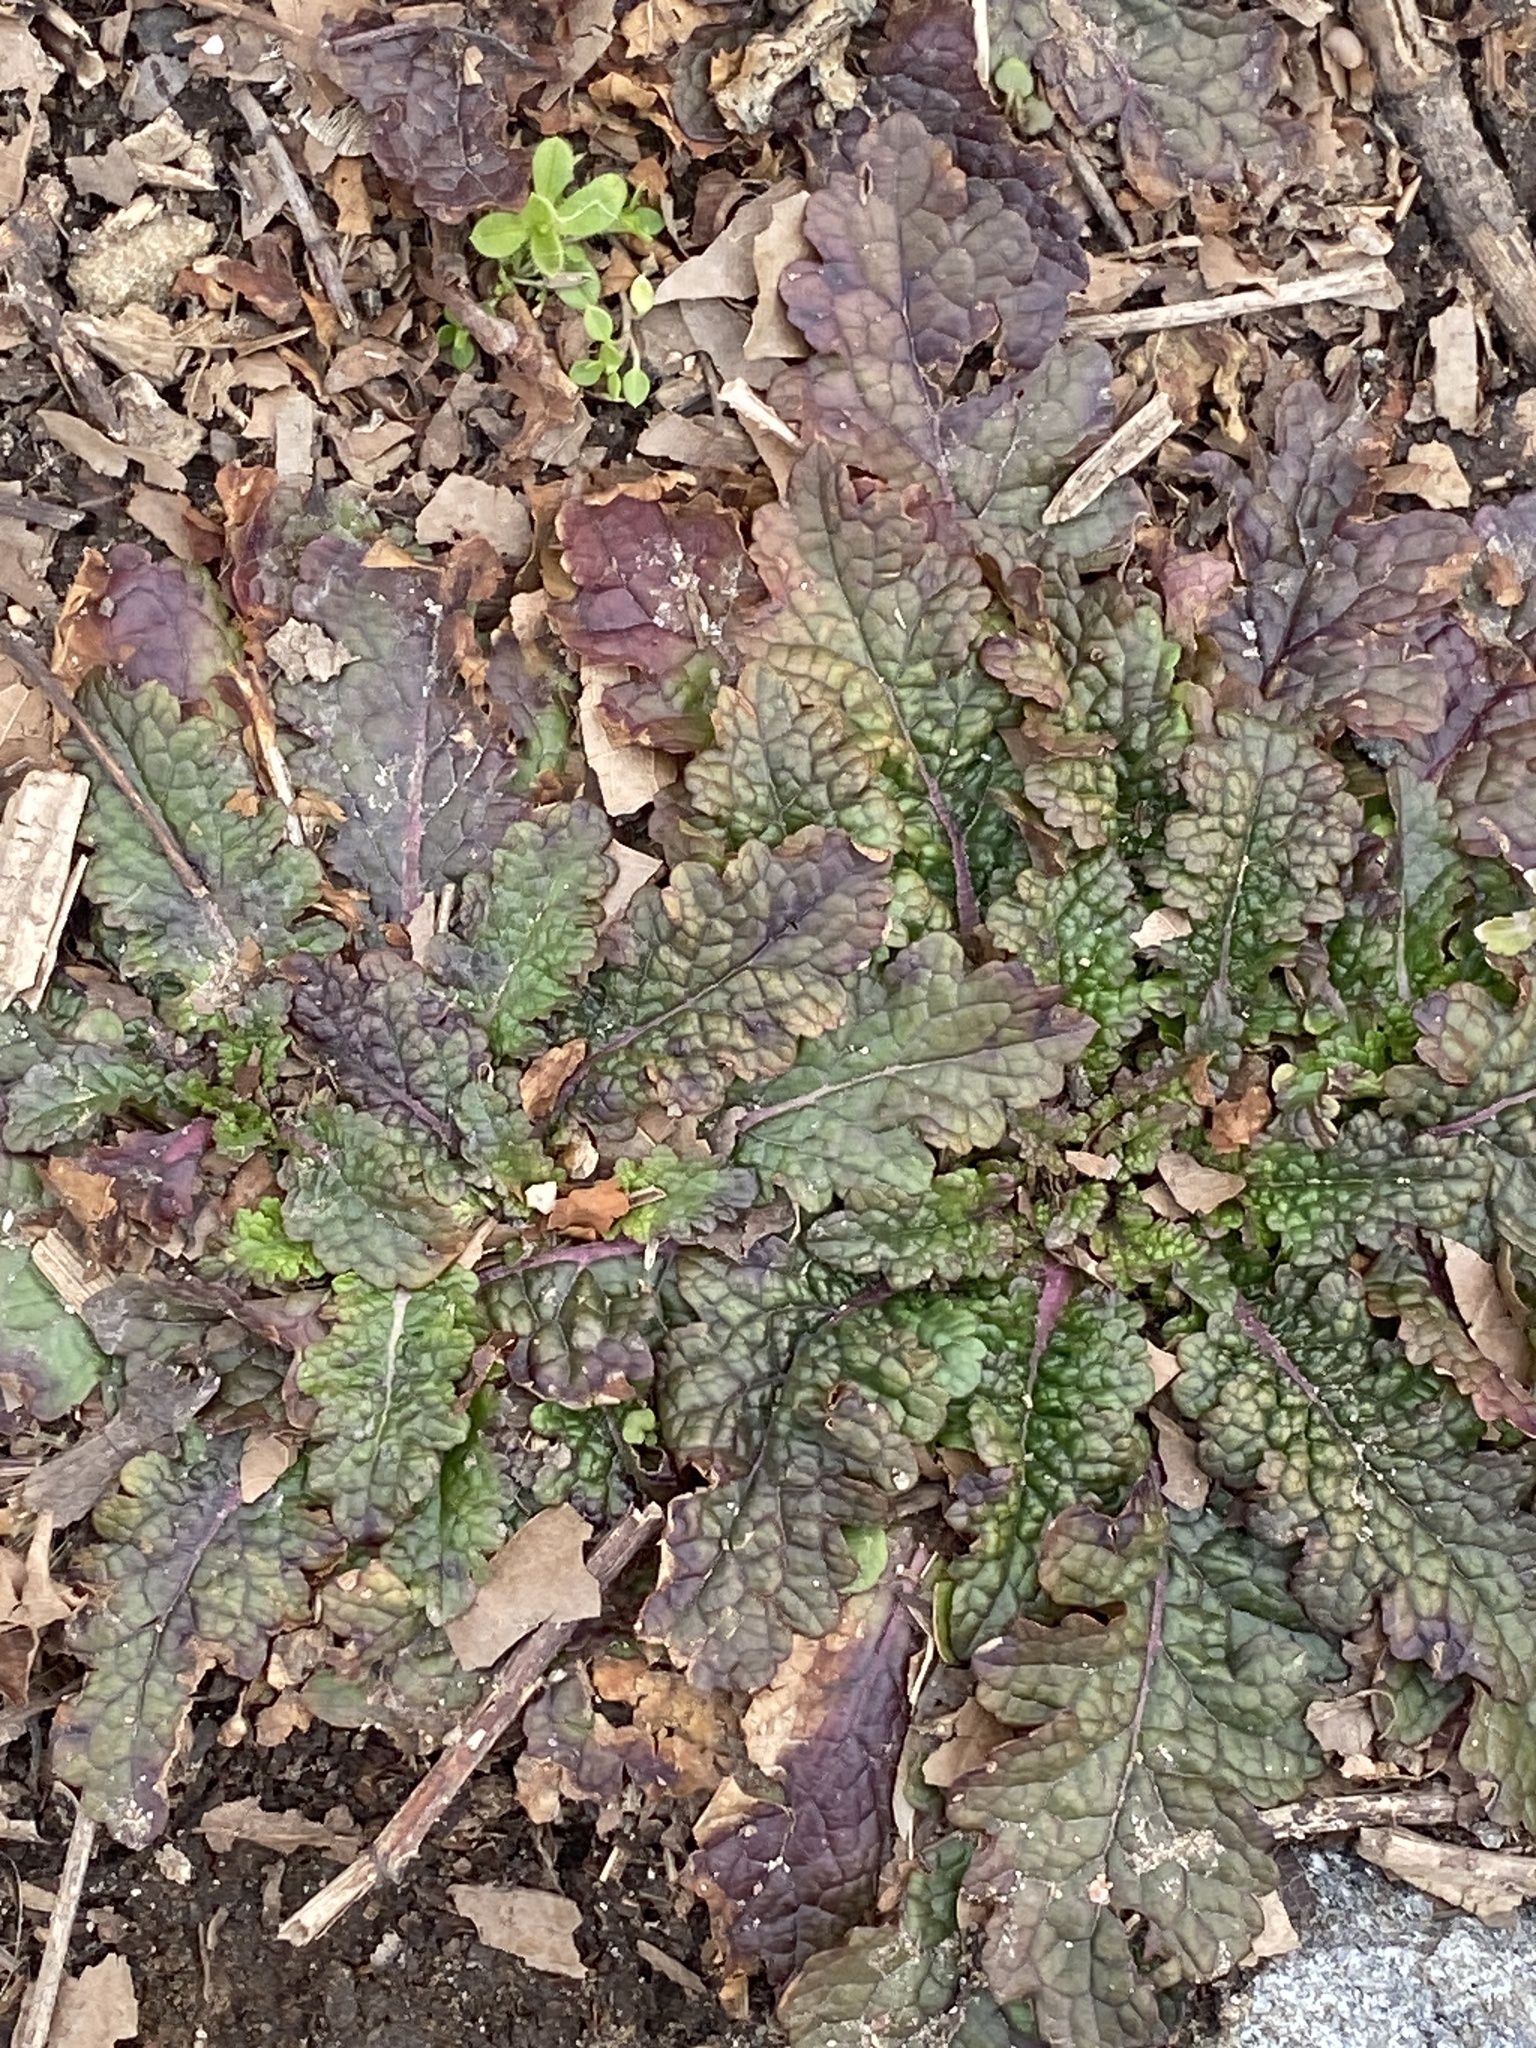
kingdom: Plantae
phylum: Tracheophyta
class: Magnoliopsida
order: Lamiales
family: Scrophulariaceae
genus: Verbascum
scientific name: Verbascum blattaria
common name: Moth mullein
